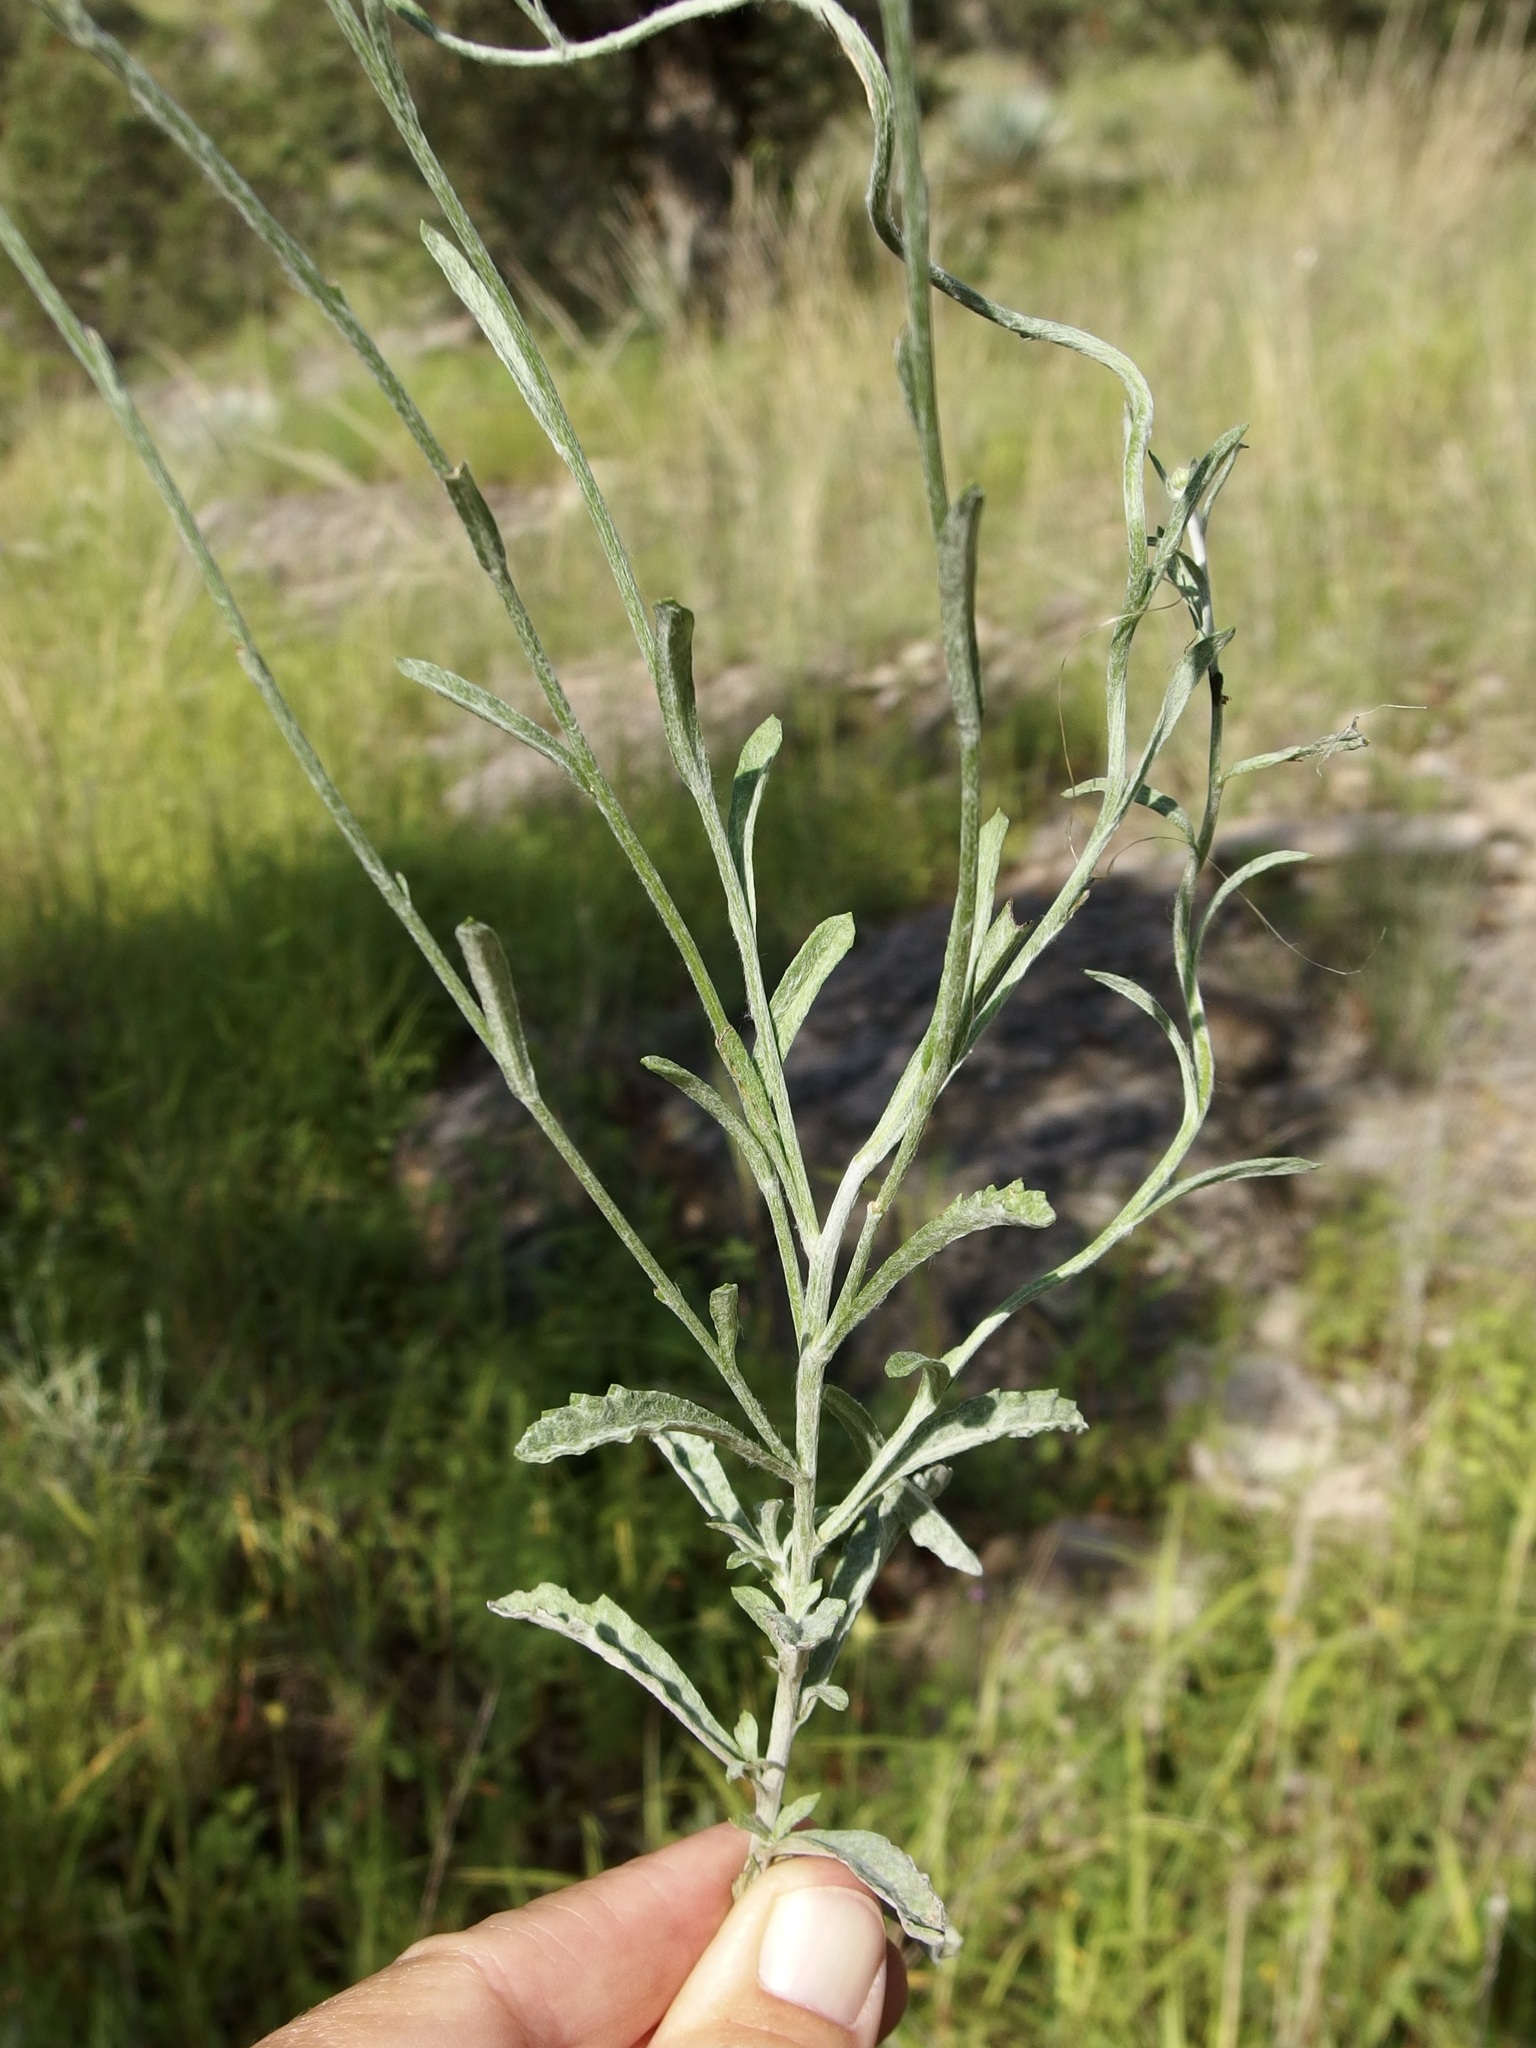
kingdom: Plantae
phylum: Tracheophyta
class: Magnoliopsida
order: Asterales
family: Asteraceae
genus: Laennecia
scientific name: Laennecia eriophylla
